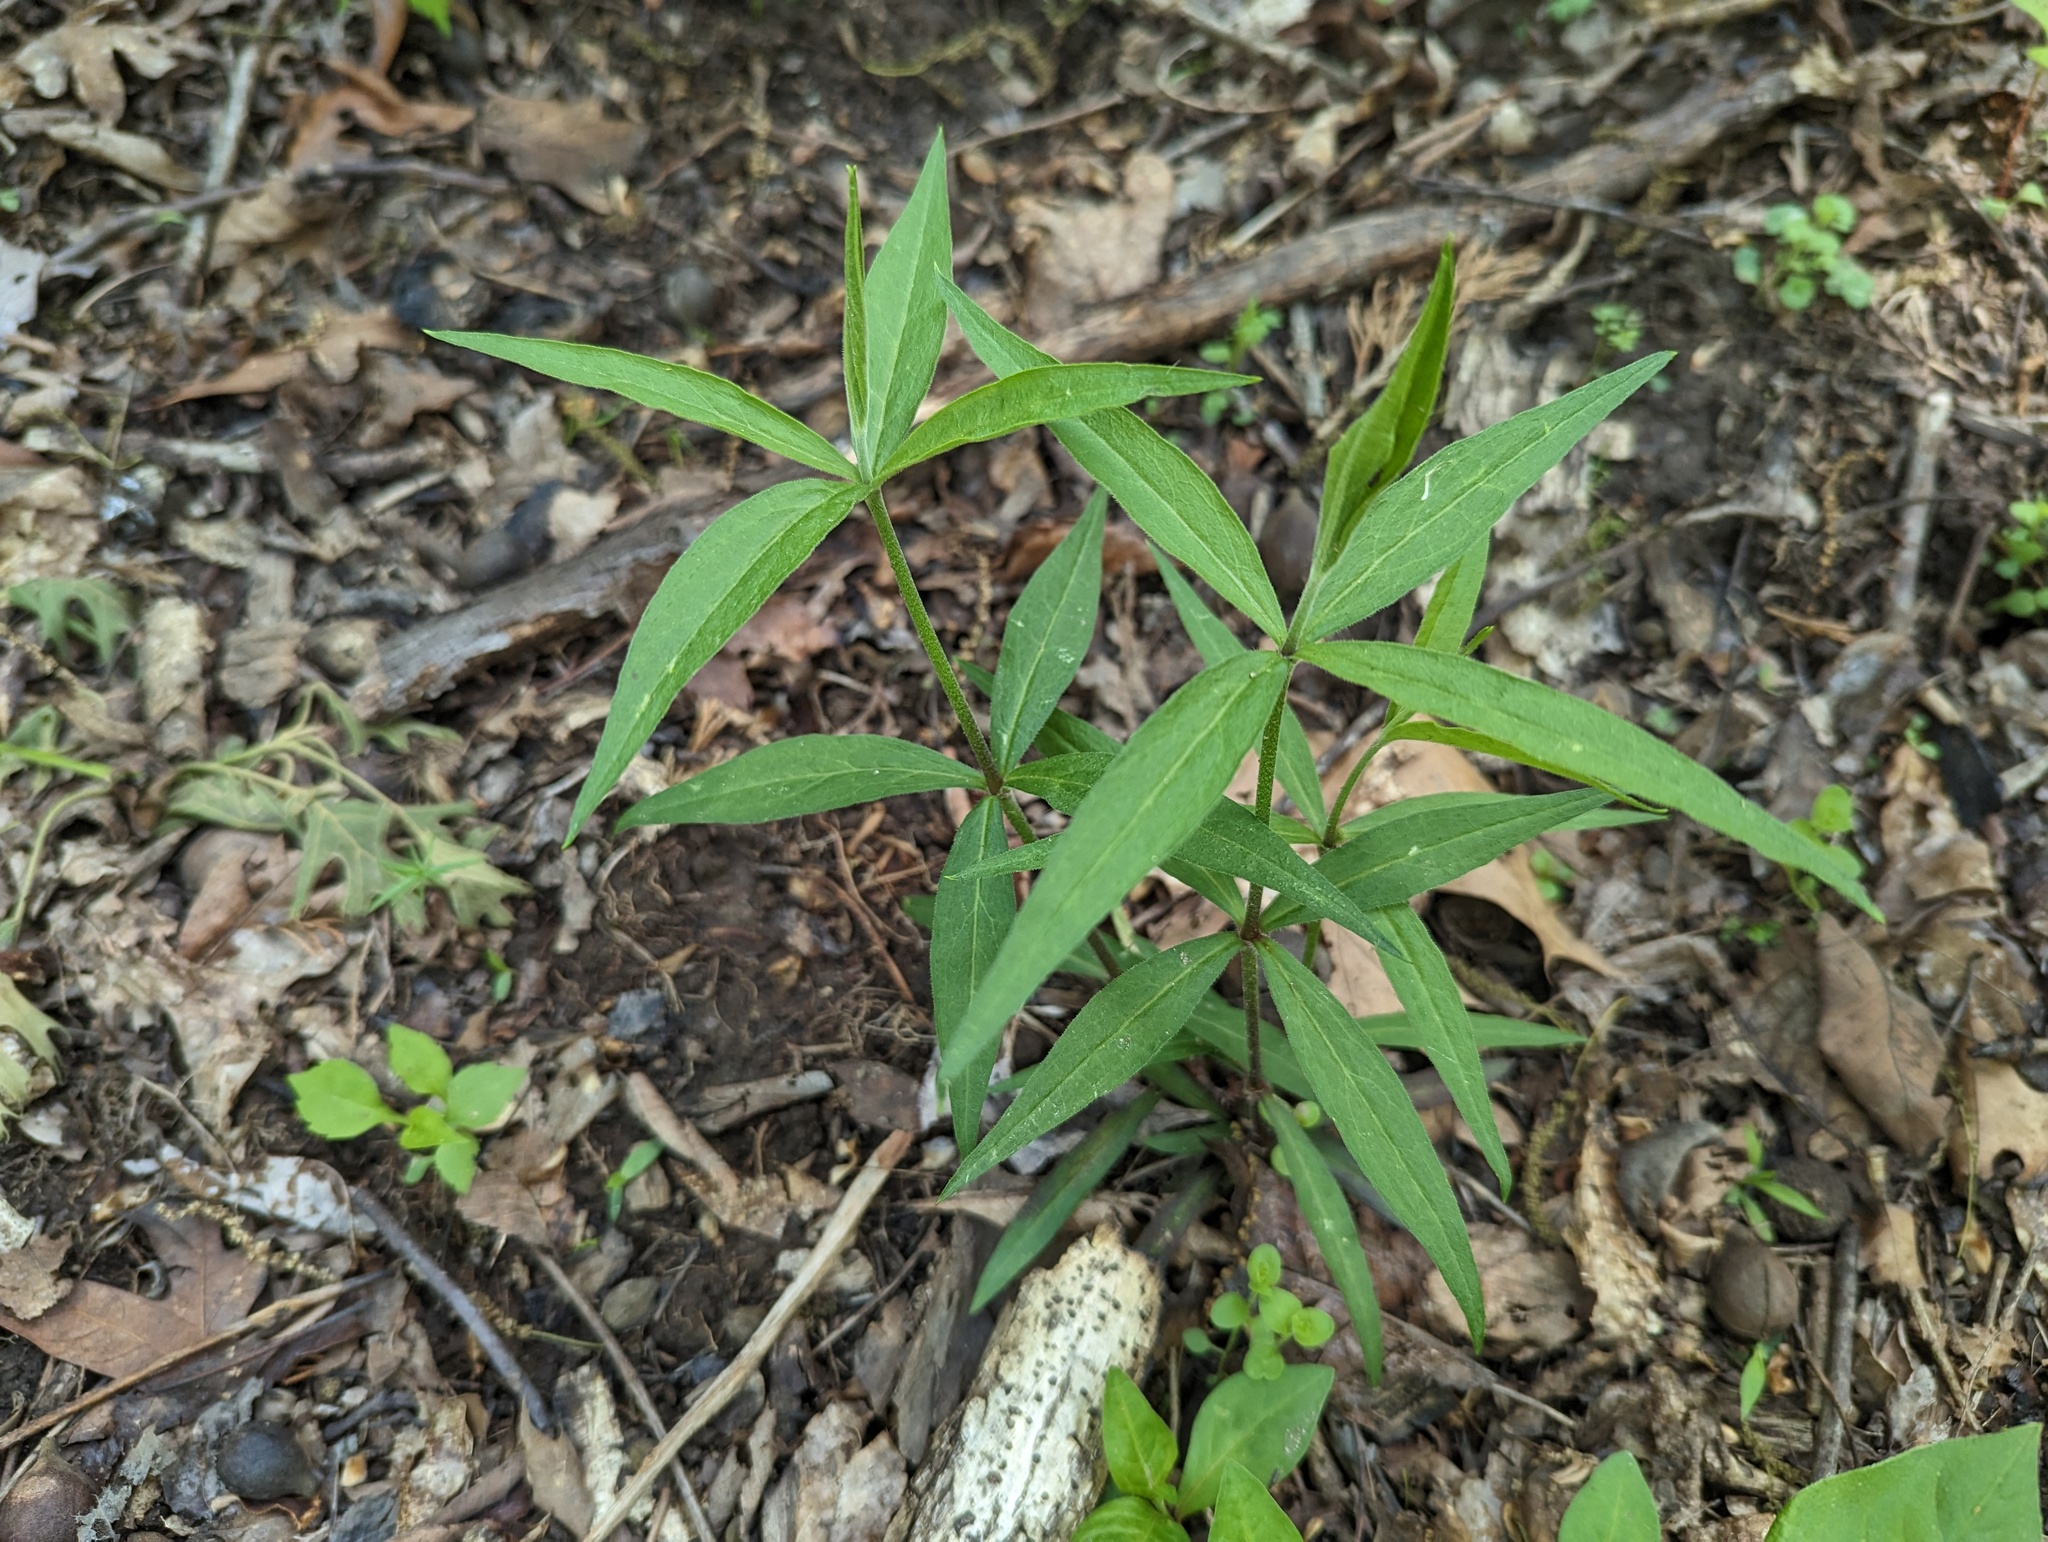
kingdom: Plantae
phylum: Tracheophyta
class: Magnoliopsida
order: Caryophyllales
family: Caryophyllaceae
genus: Silene
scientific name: Silene stellata
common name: Starry campion
